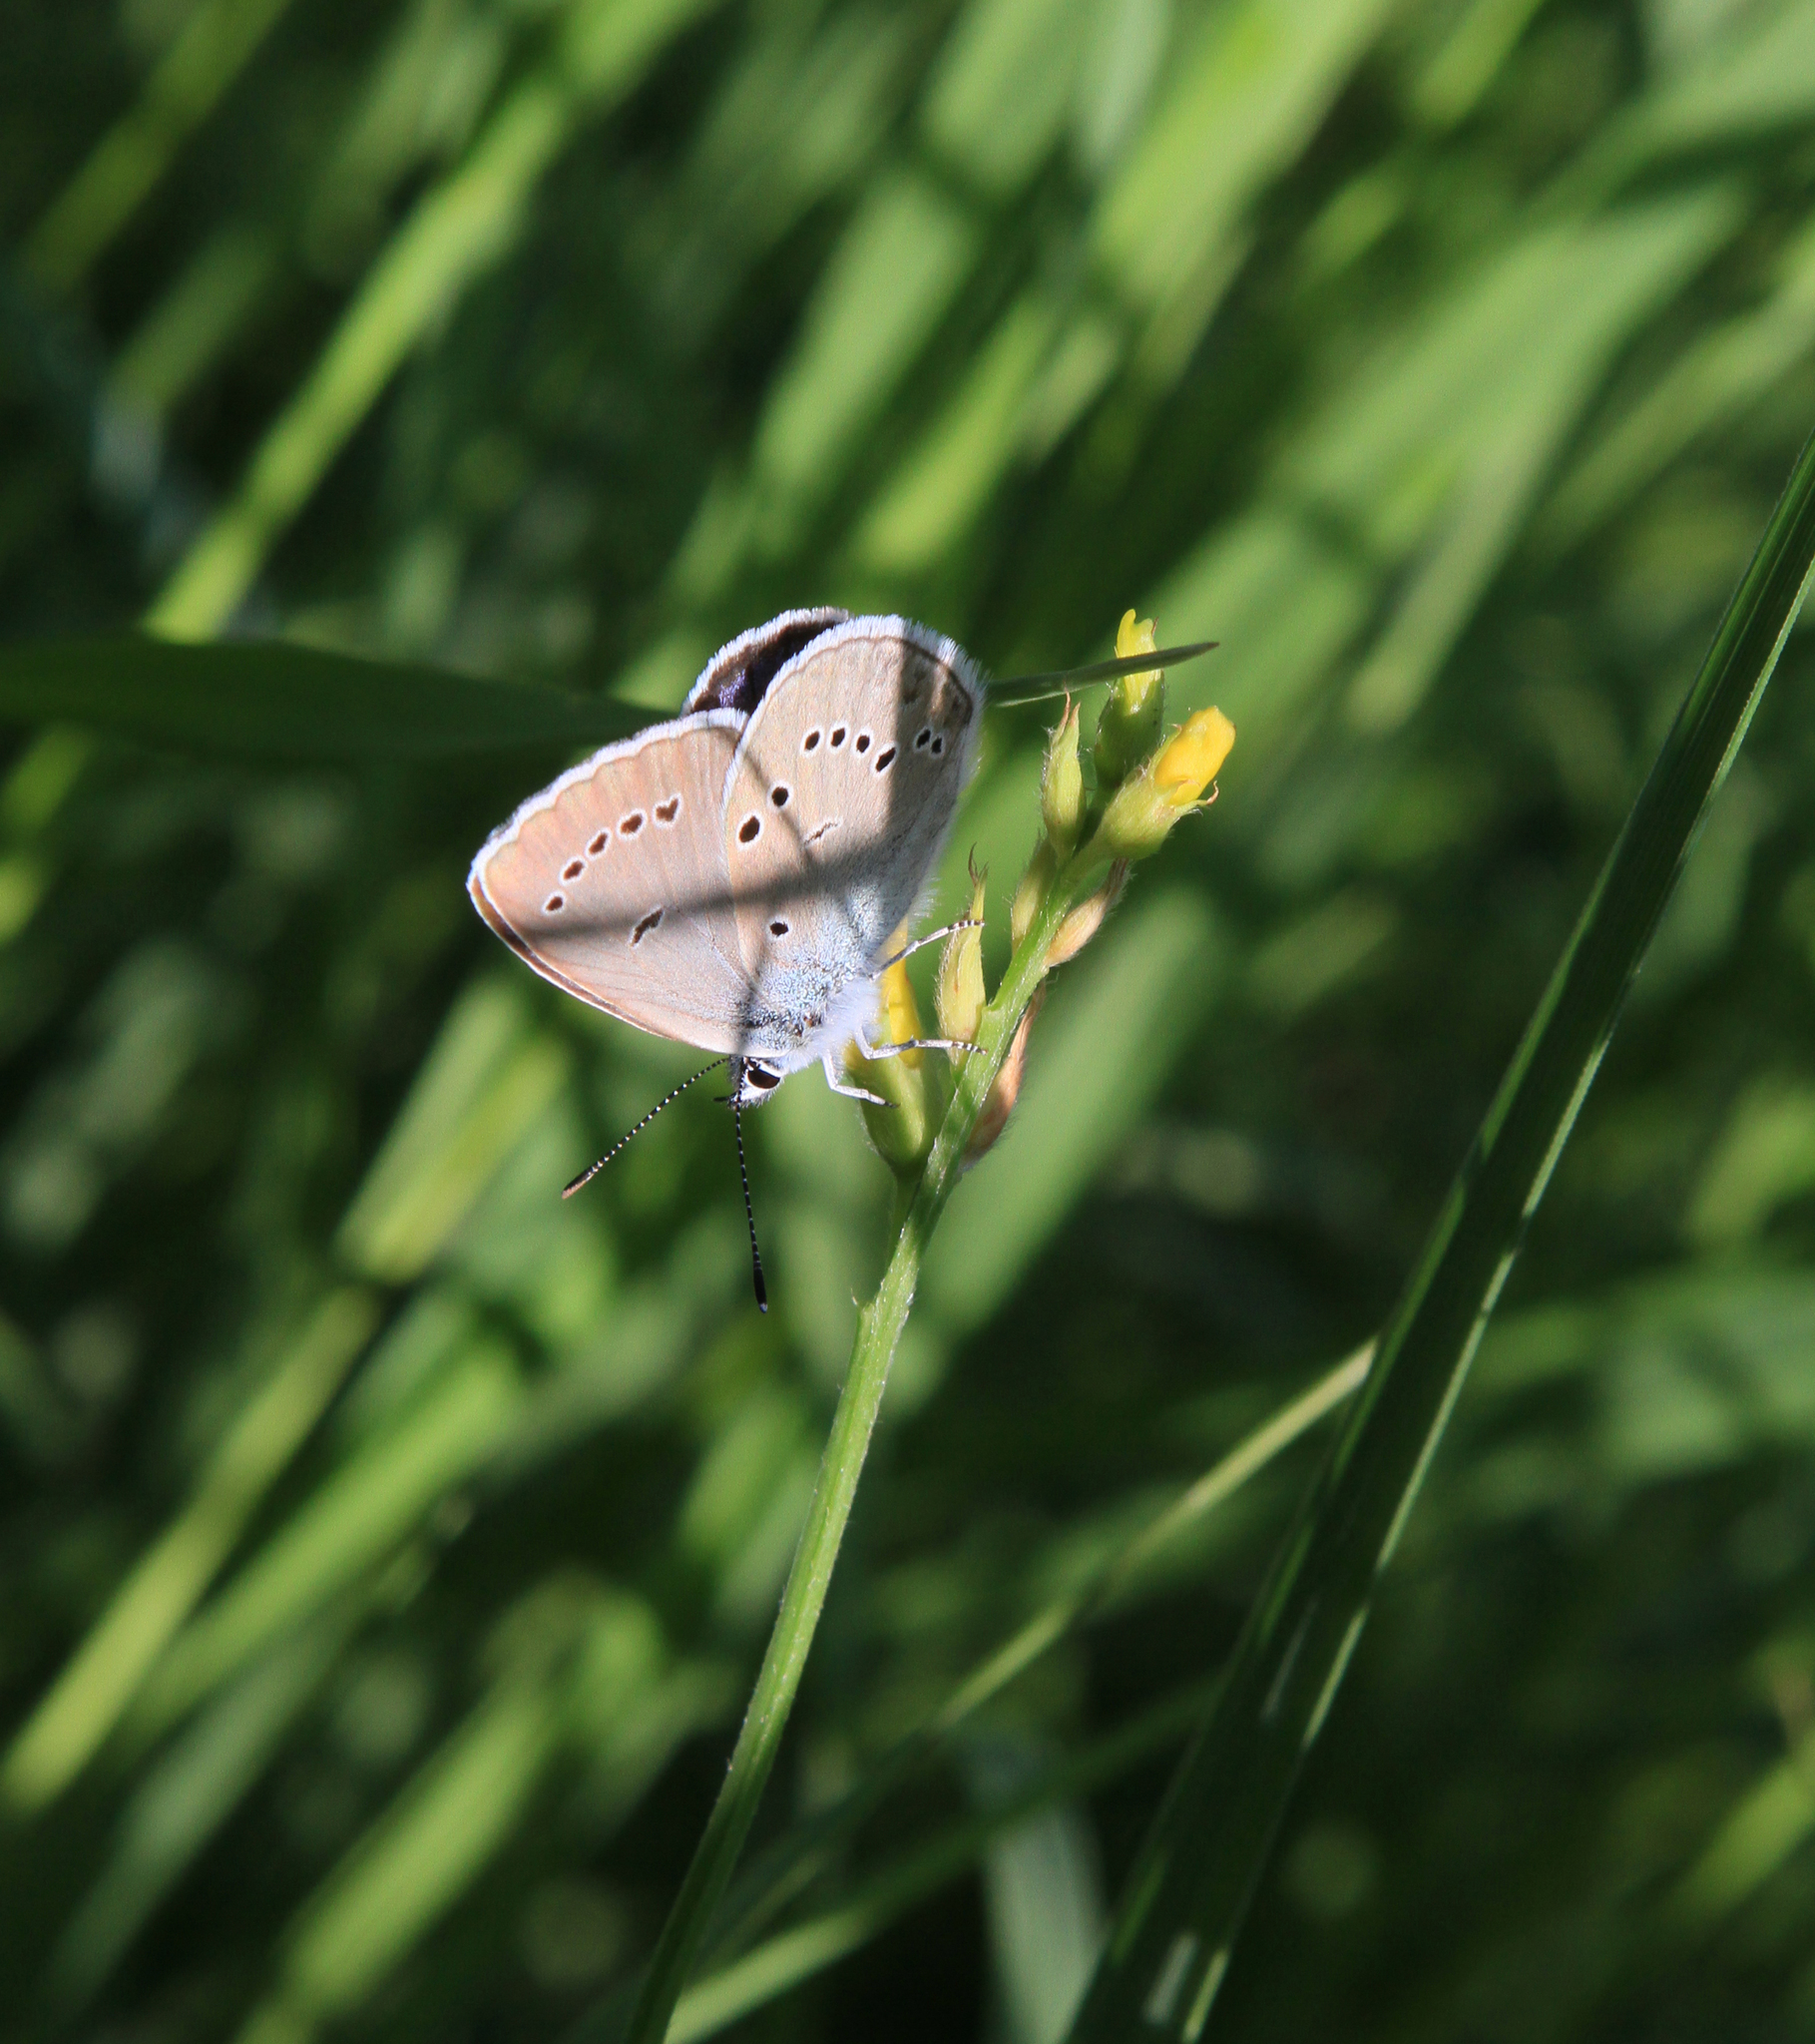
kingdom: Animalia
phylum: Arthropoda
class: Insecta
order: Lepidoptera
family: Lycaenidae
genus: Cyaniris
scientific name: Cyaniris semiargus
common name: Mazarine blue
